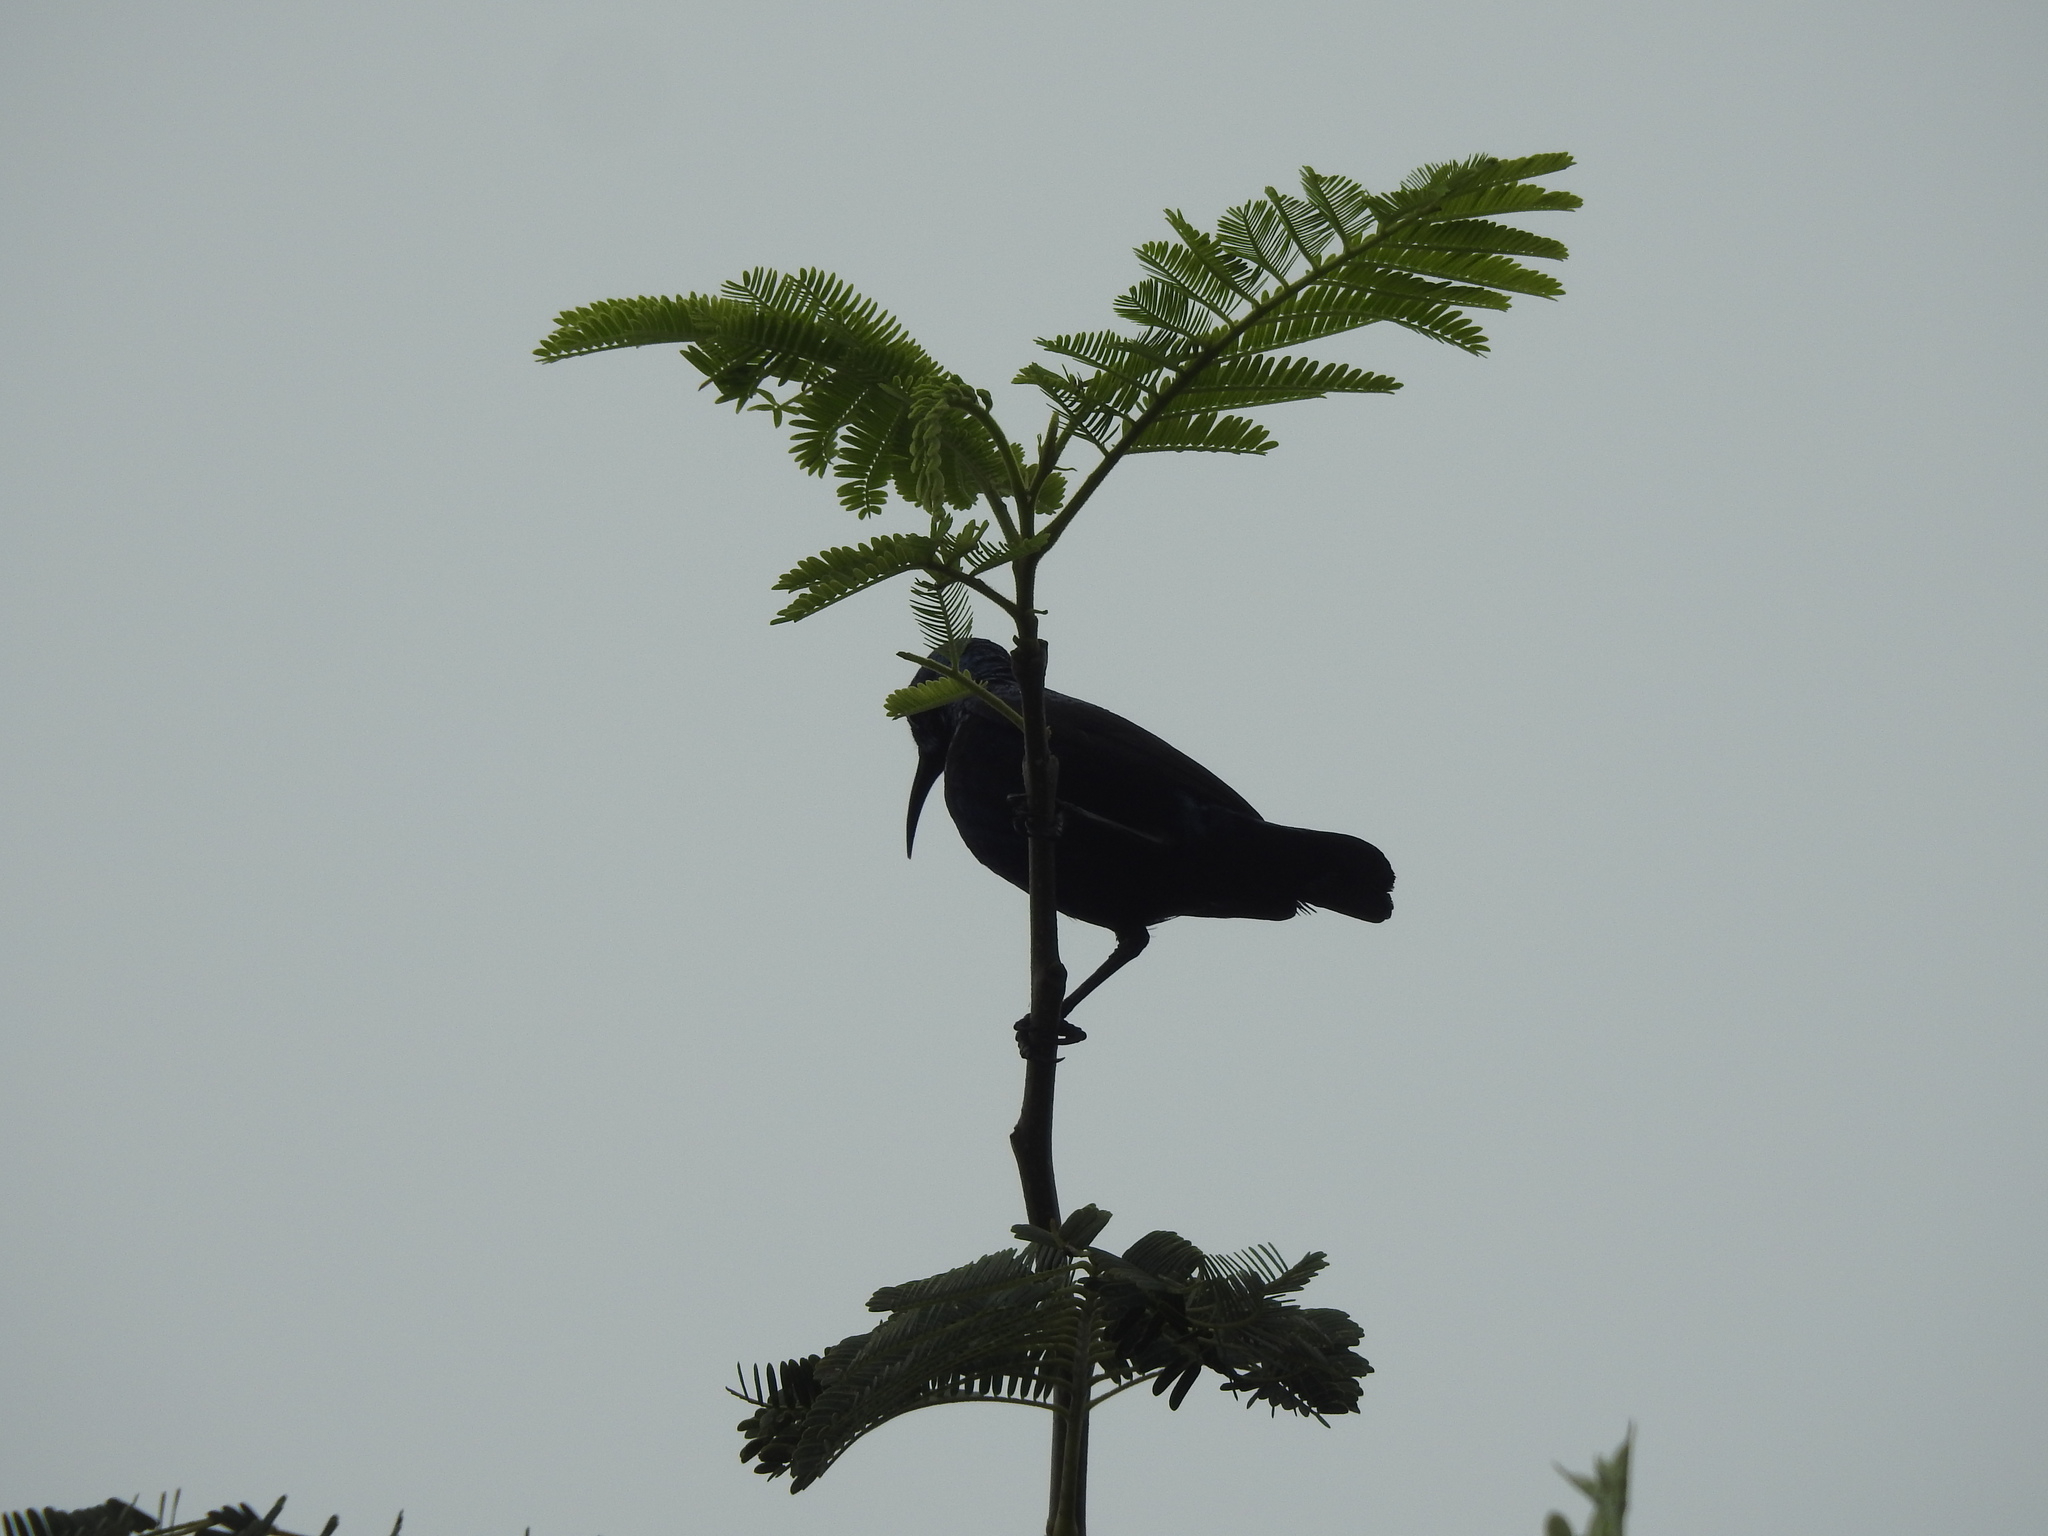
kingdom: Animalia
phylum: Chordata
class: Aves
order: Passeriformes
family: Nectariniidae
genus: Cinnyris
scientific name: Cinnyris asiaticus
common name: Purple sunbird
